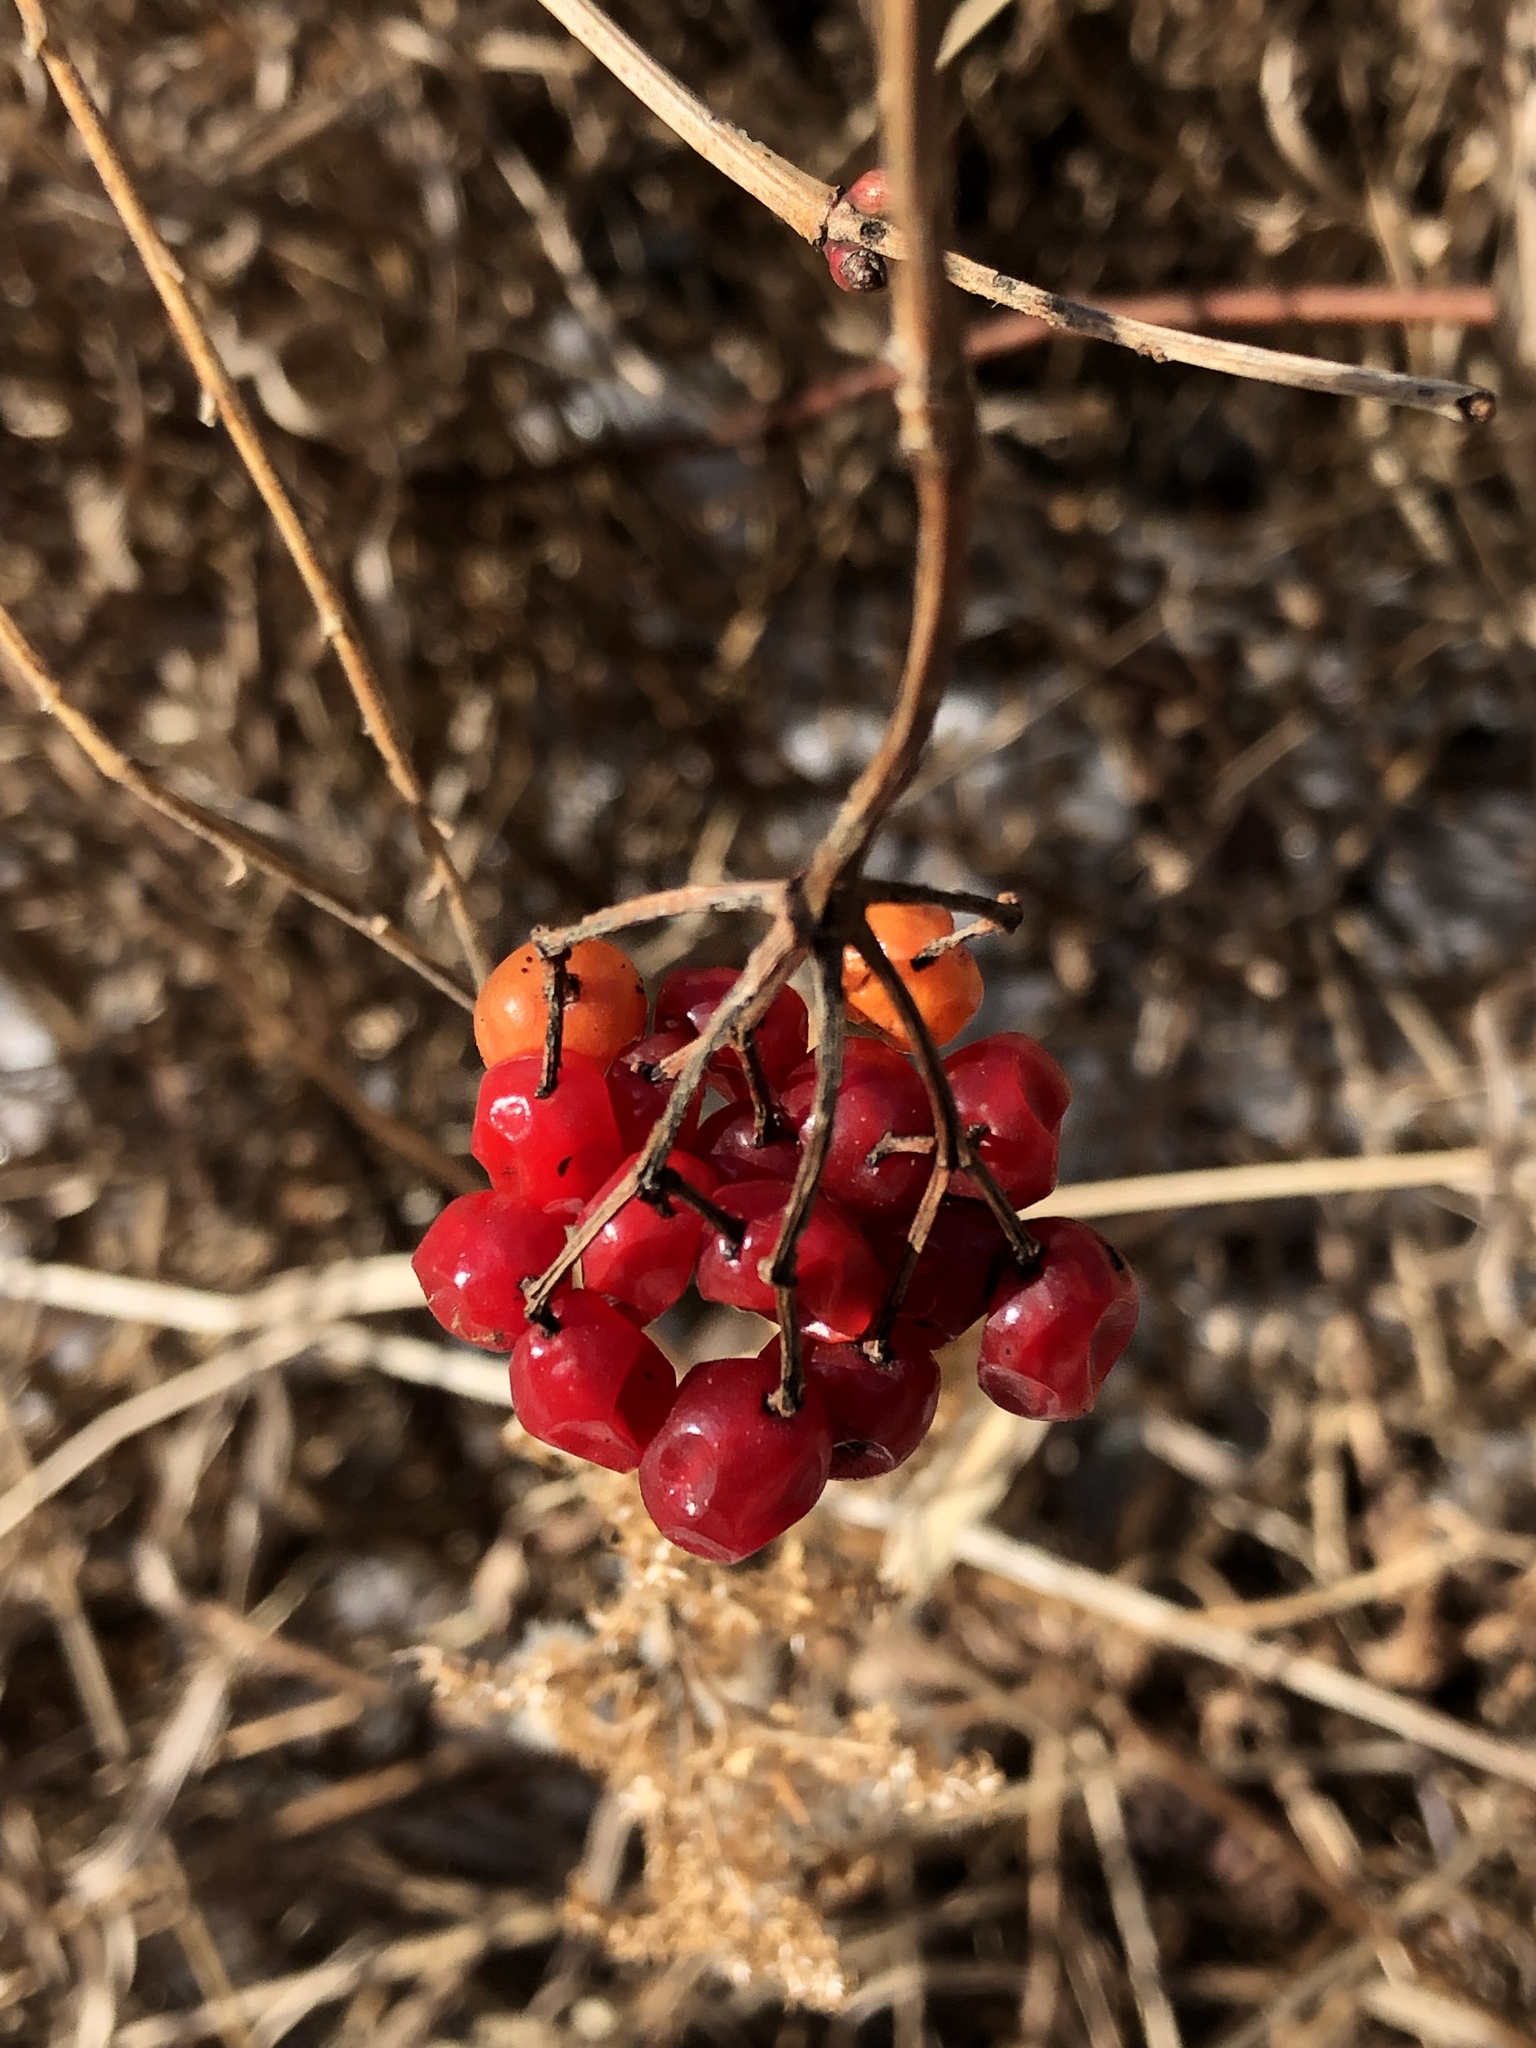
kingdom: Plantae
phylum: Tracheophyta
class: Magnoliopsida
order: Dipsacales
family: Viburnaceae
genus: Viburnum
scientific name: Viburnum opulus
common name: Guelder-rose
